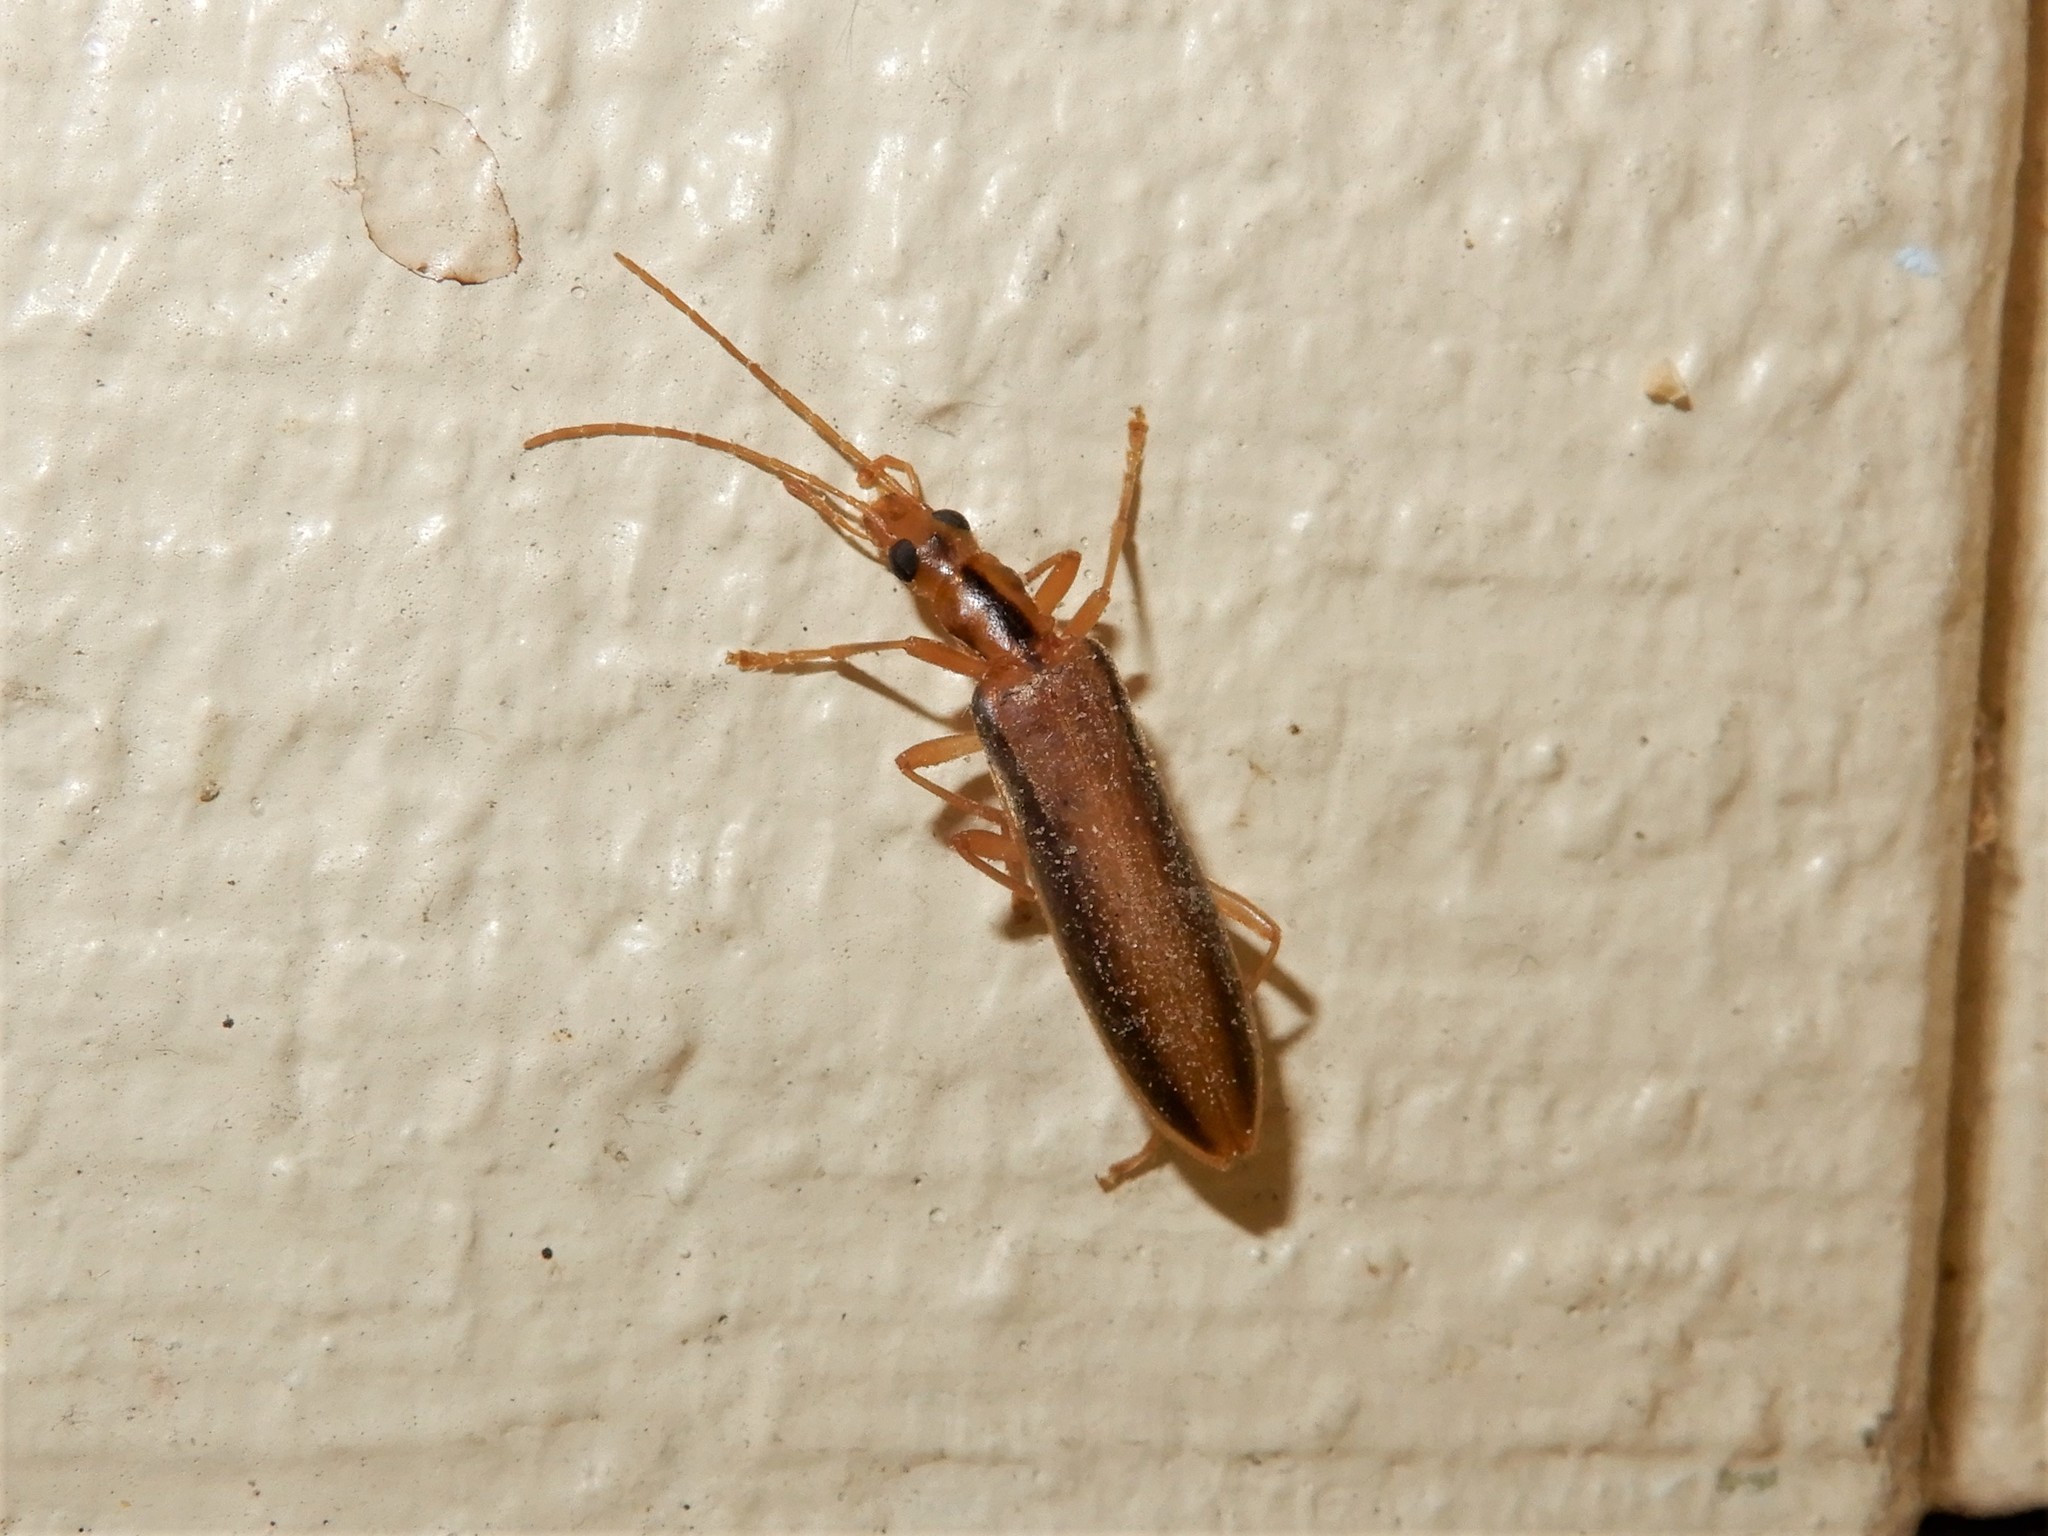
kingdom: Animalia
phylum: Arthropoda
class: Insecta
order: Coleoptera
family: Oedemeridae
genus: Thelyphassa
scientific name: Thelyphassa
